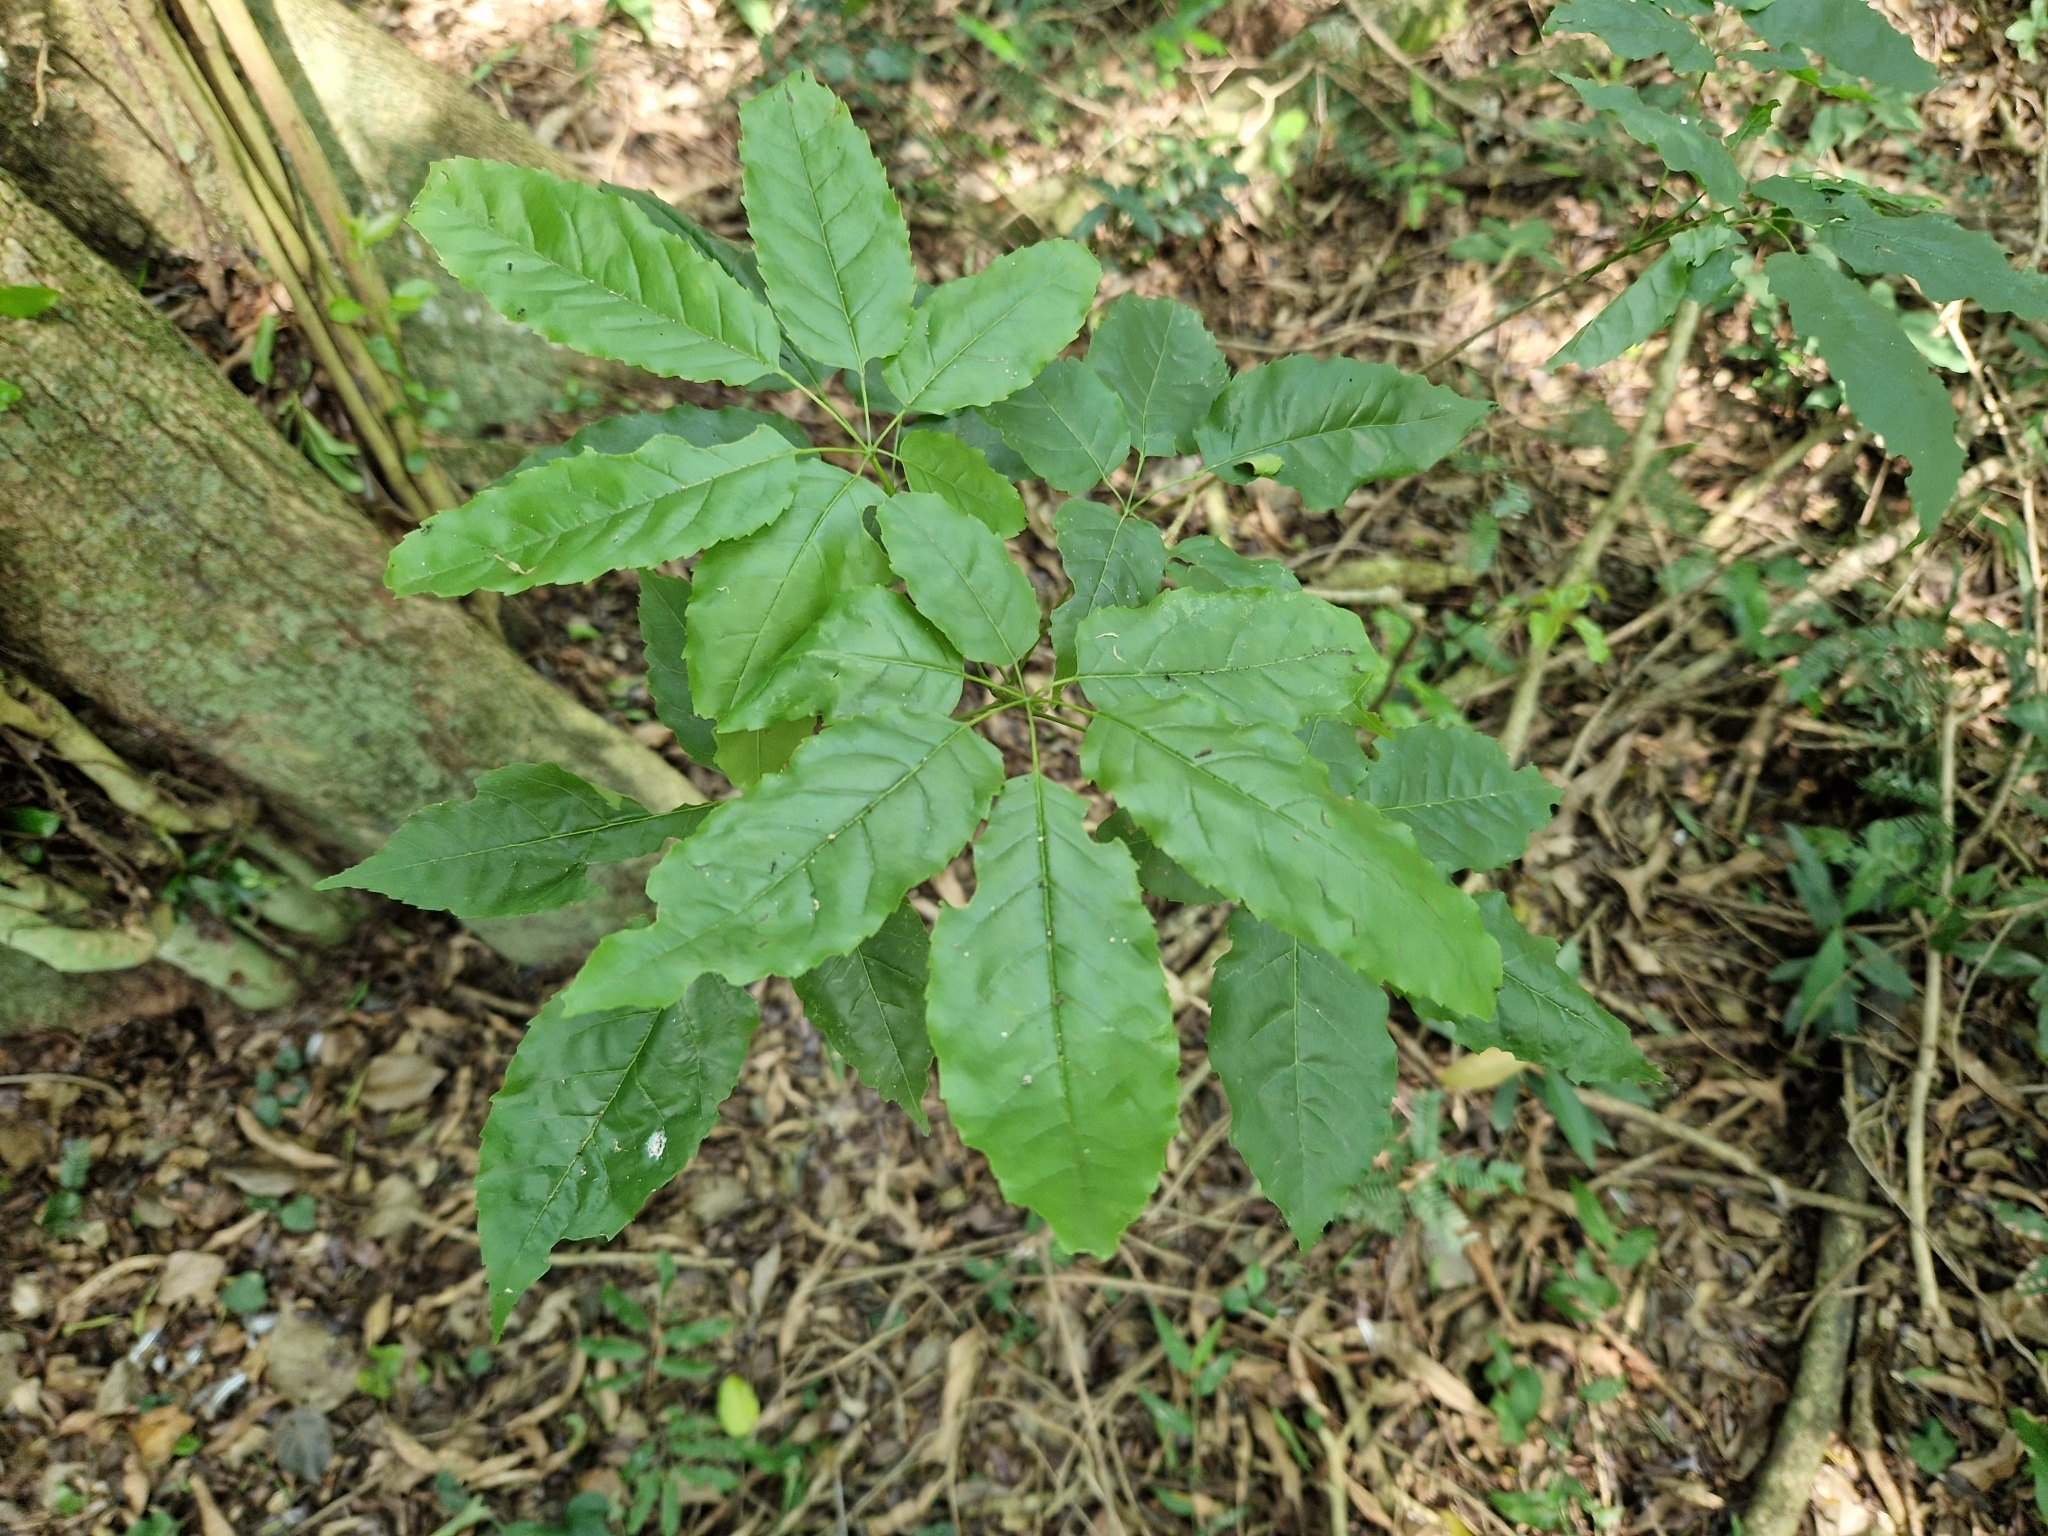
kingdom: Plantae
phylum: Tracheophyta
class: Magnoliopsida
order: Lamiales
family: Bignoniaceae
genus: Handroanthus
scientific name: Handroanthus heptaphyllus
